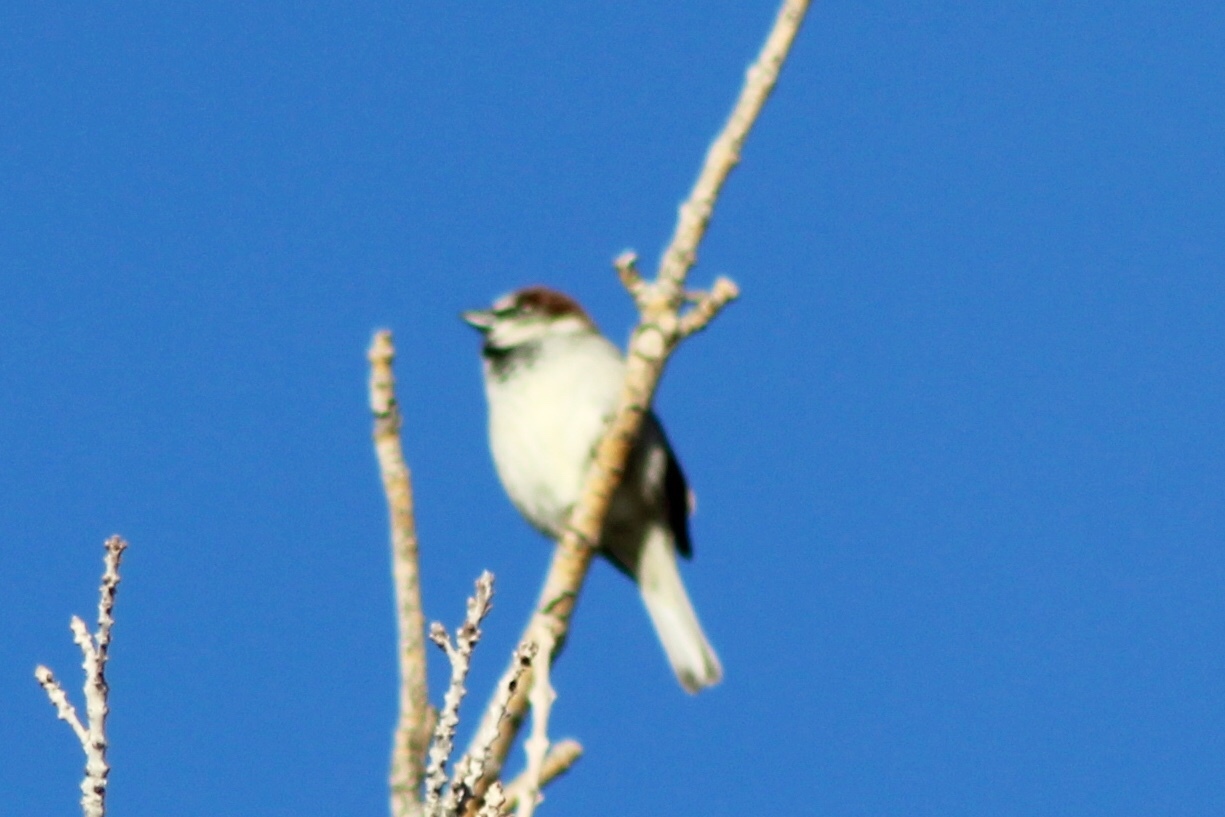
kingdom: Animalia
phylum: Chordata
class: Aves
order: Passeriformes
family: Passeridae
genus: Passer
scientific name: Passer domesticus
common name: House sparrow
